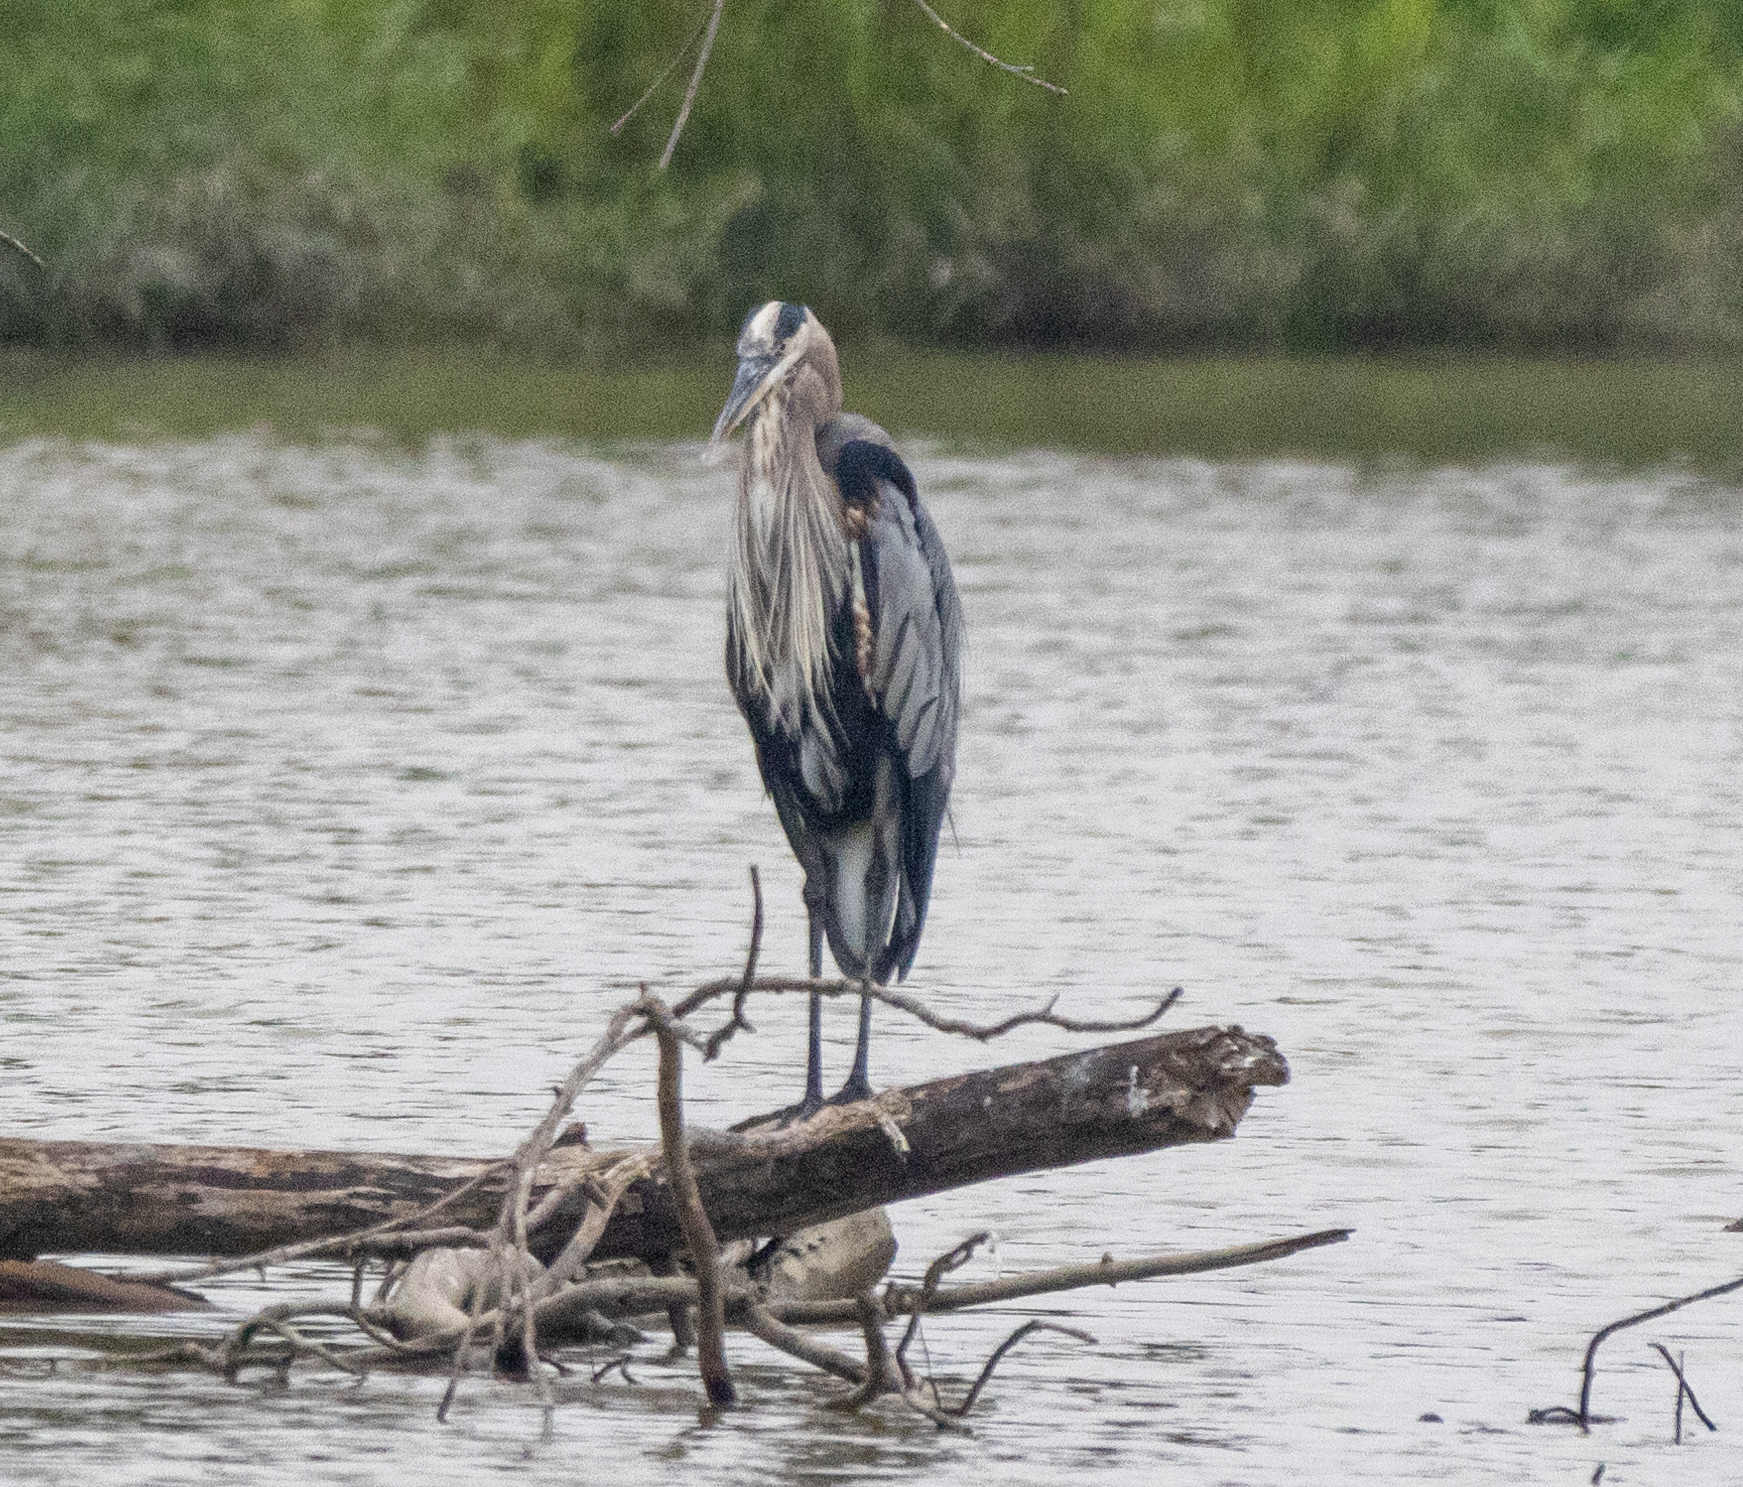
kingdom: Animalia
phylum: Chordata
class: Aves
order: Pelecaniformes
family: Ardeidae
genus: Ardea
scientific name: Ardea herodias
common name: Great blue heron
